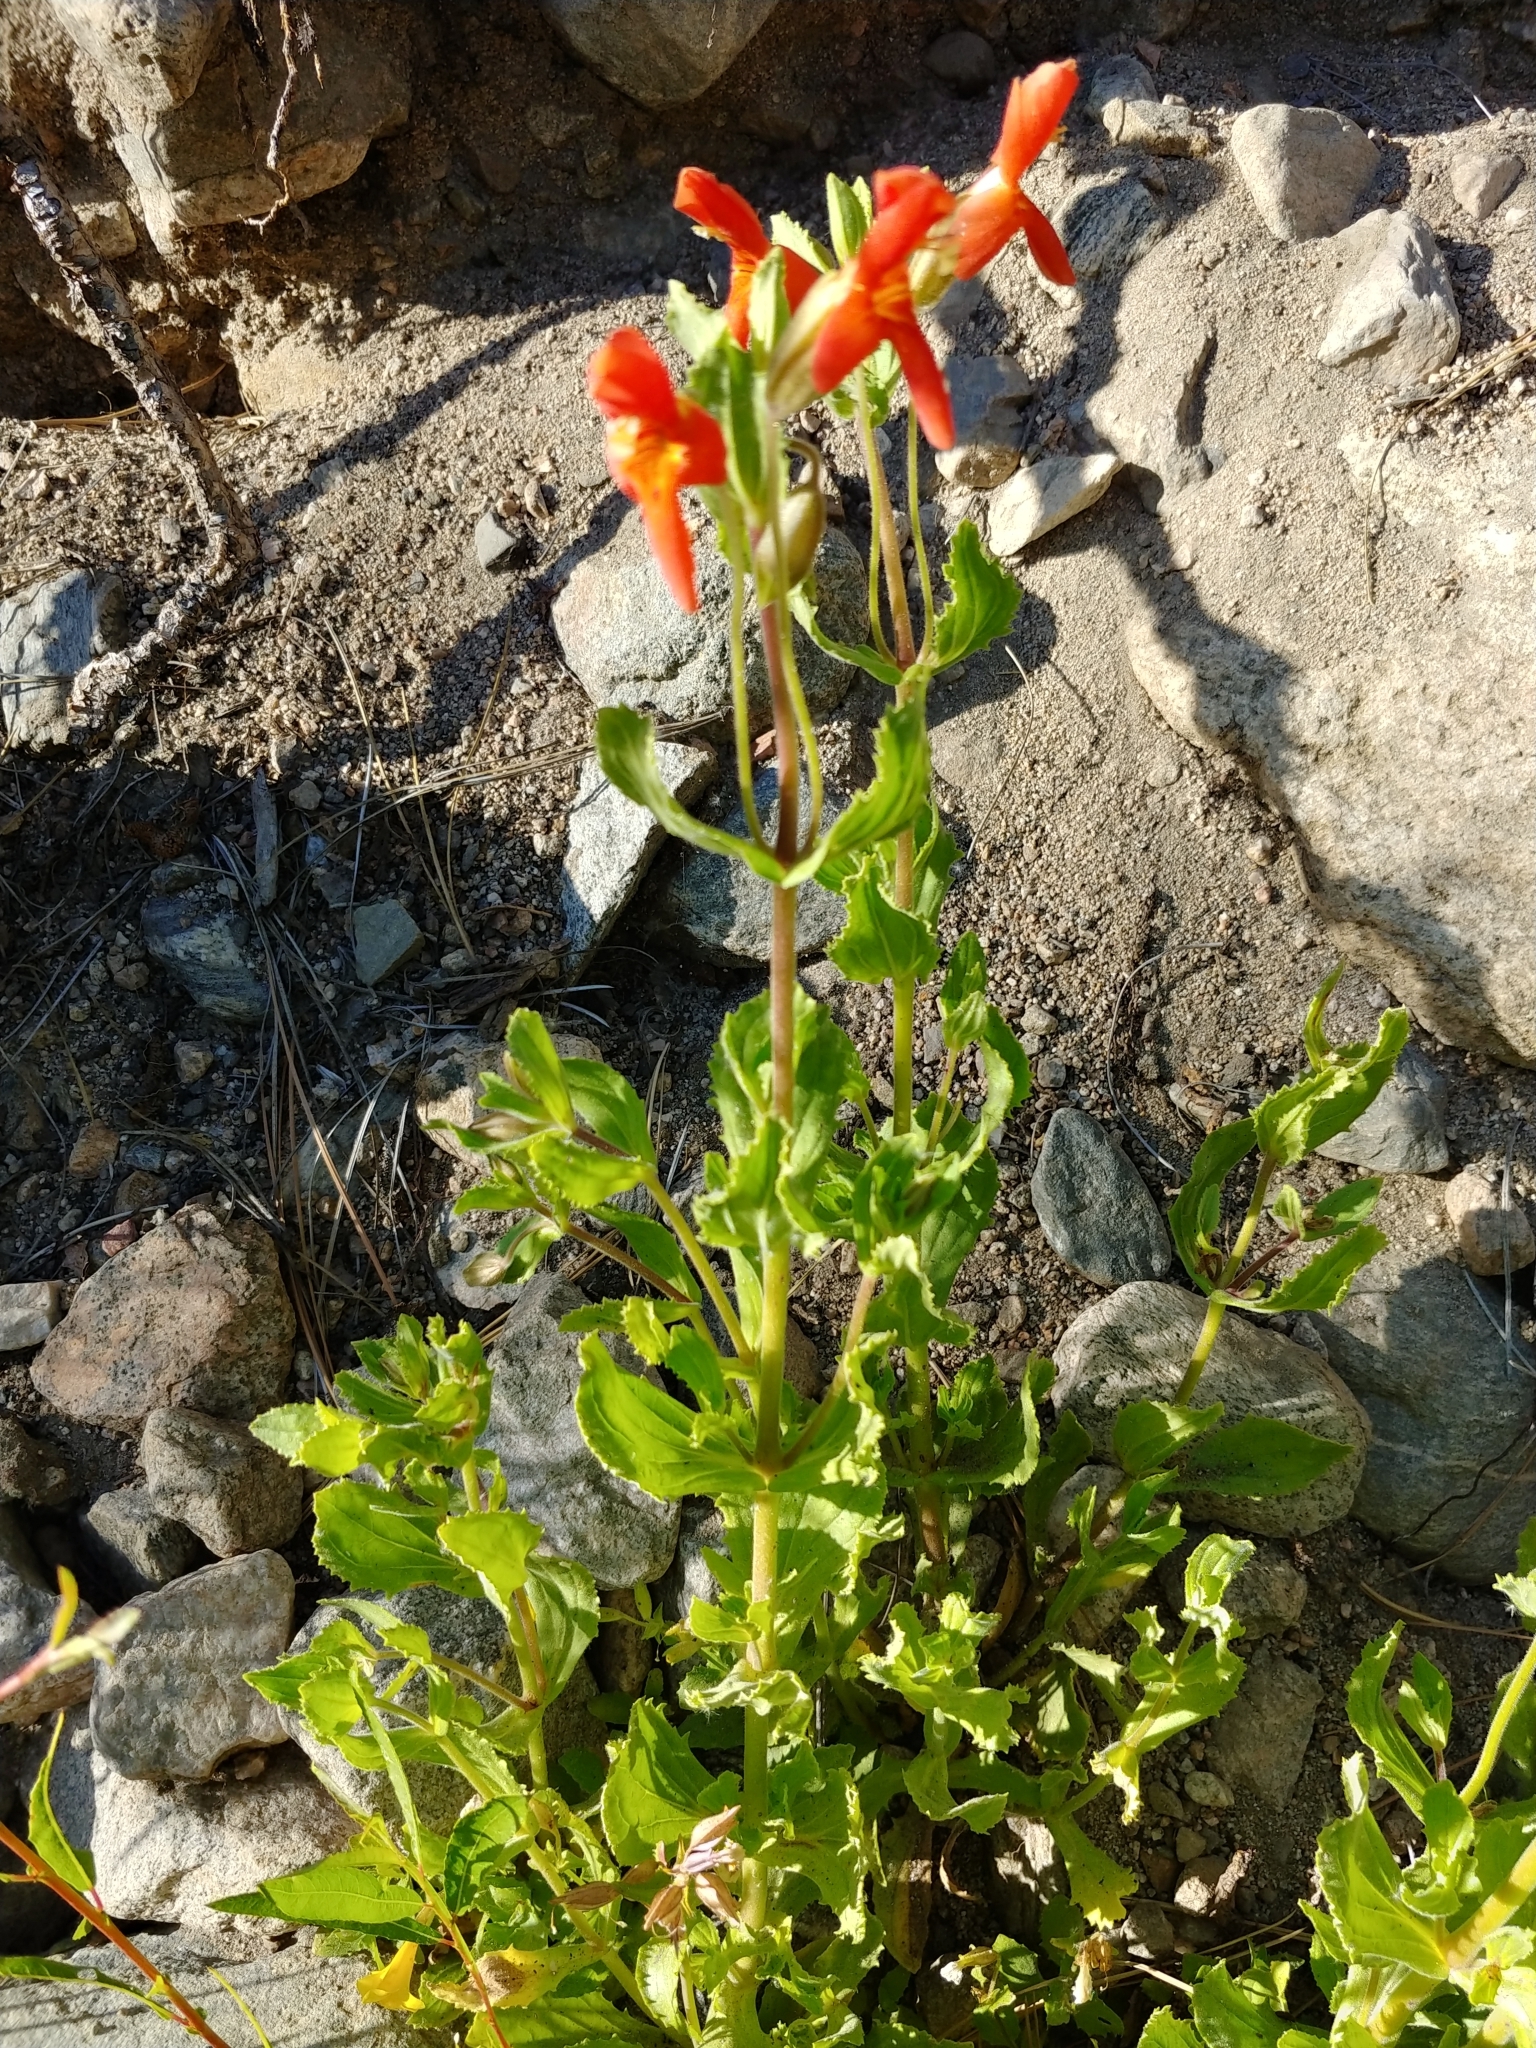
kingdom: Plantae
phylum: Tracheophyta
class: Magnoliopsida
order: Lamiales
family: Phrymaceae
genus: Erythranthe
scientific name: Erythranthe cardinalis
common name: Scarlet monkey-flower
